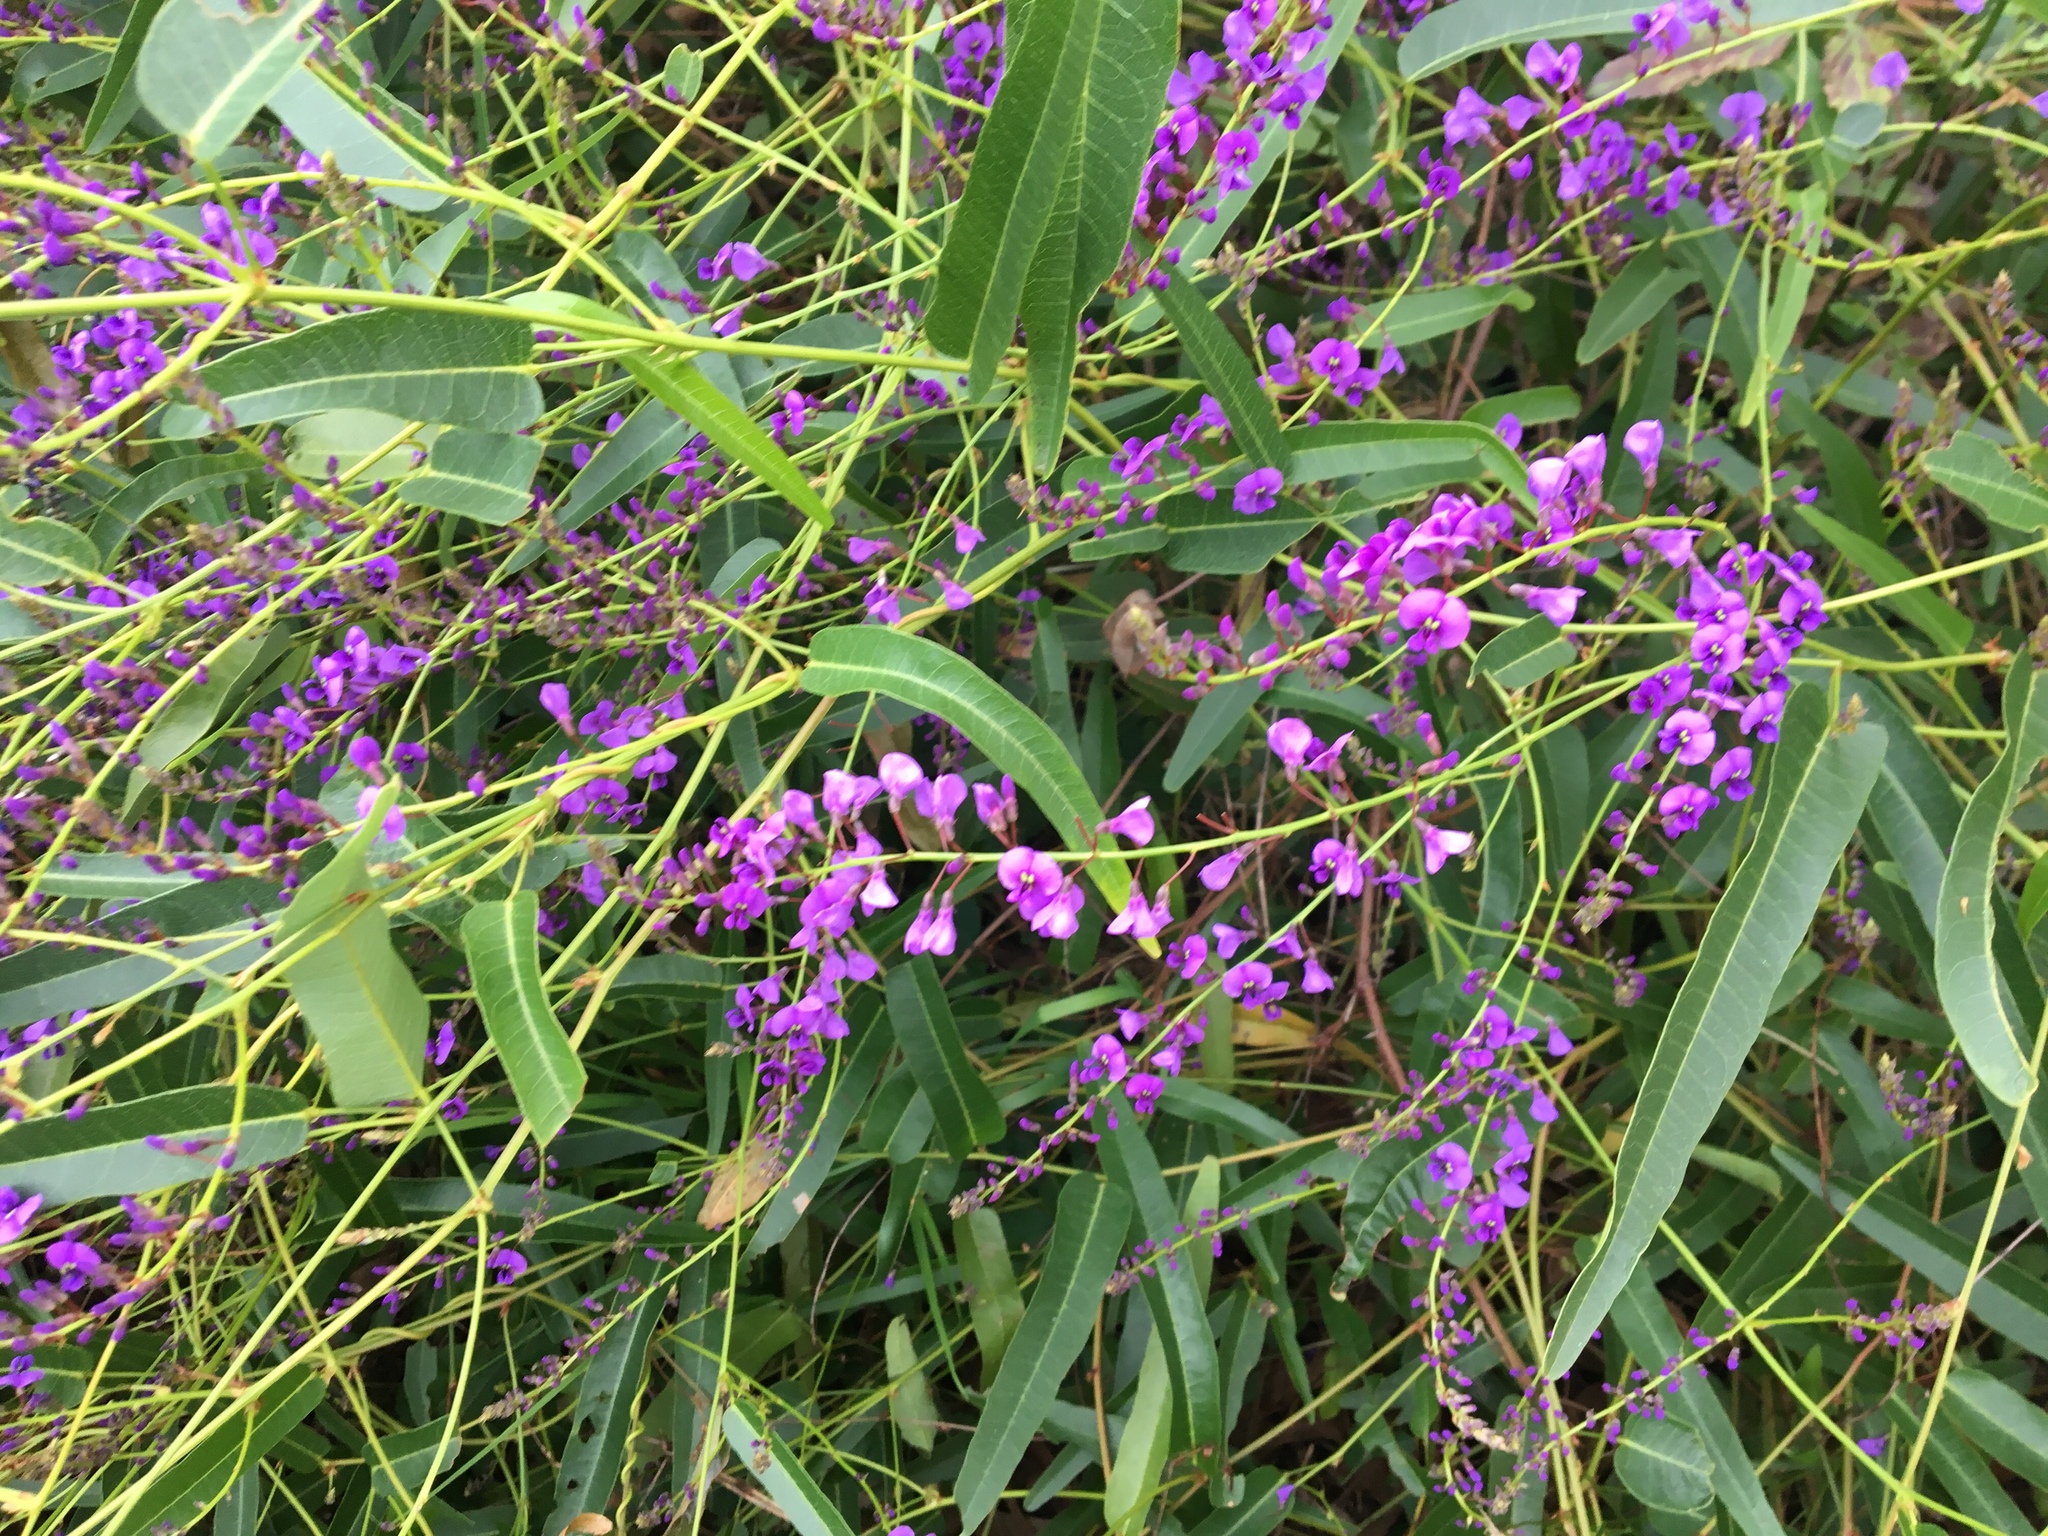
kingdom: Plantae
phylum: Tracheophyta
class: Magnoliopsida
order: Fabales
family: Fabaceae
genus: Hardenbergia
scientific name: Hardenbergia violacea
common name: Coral-pea
